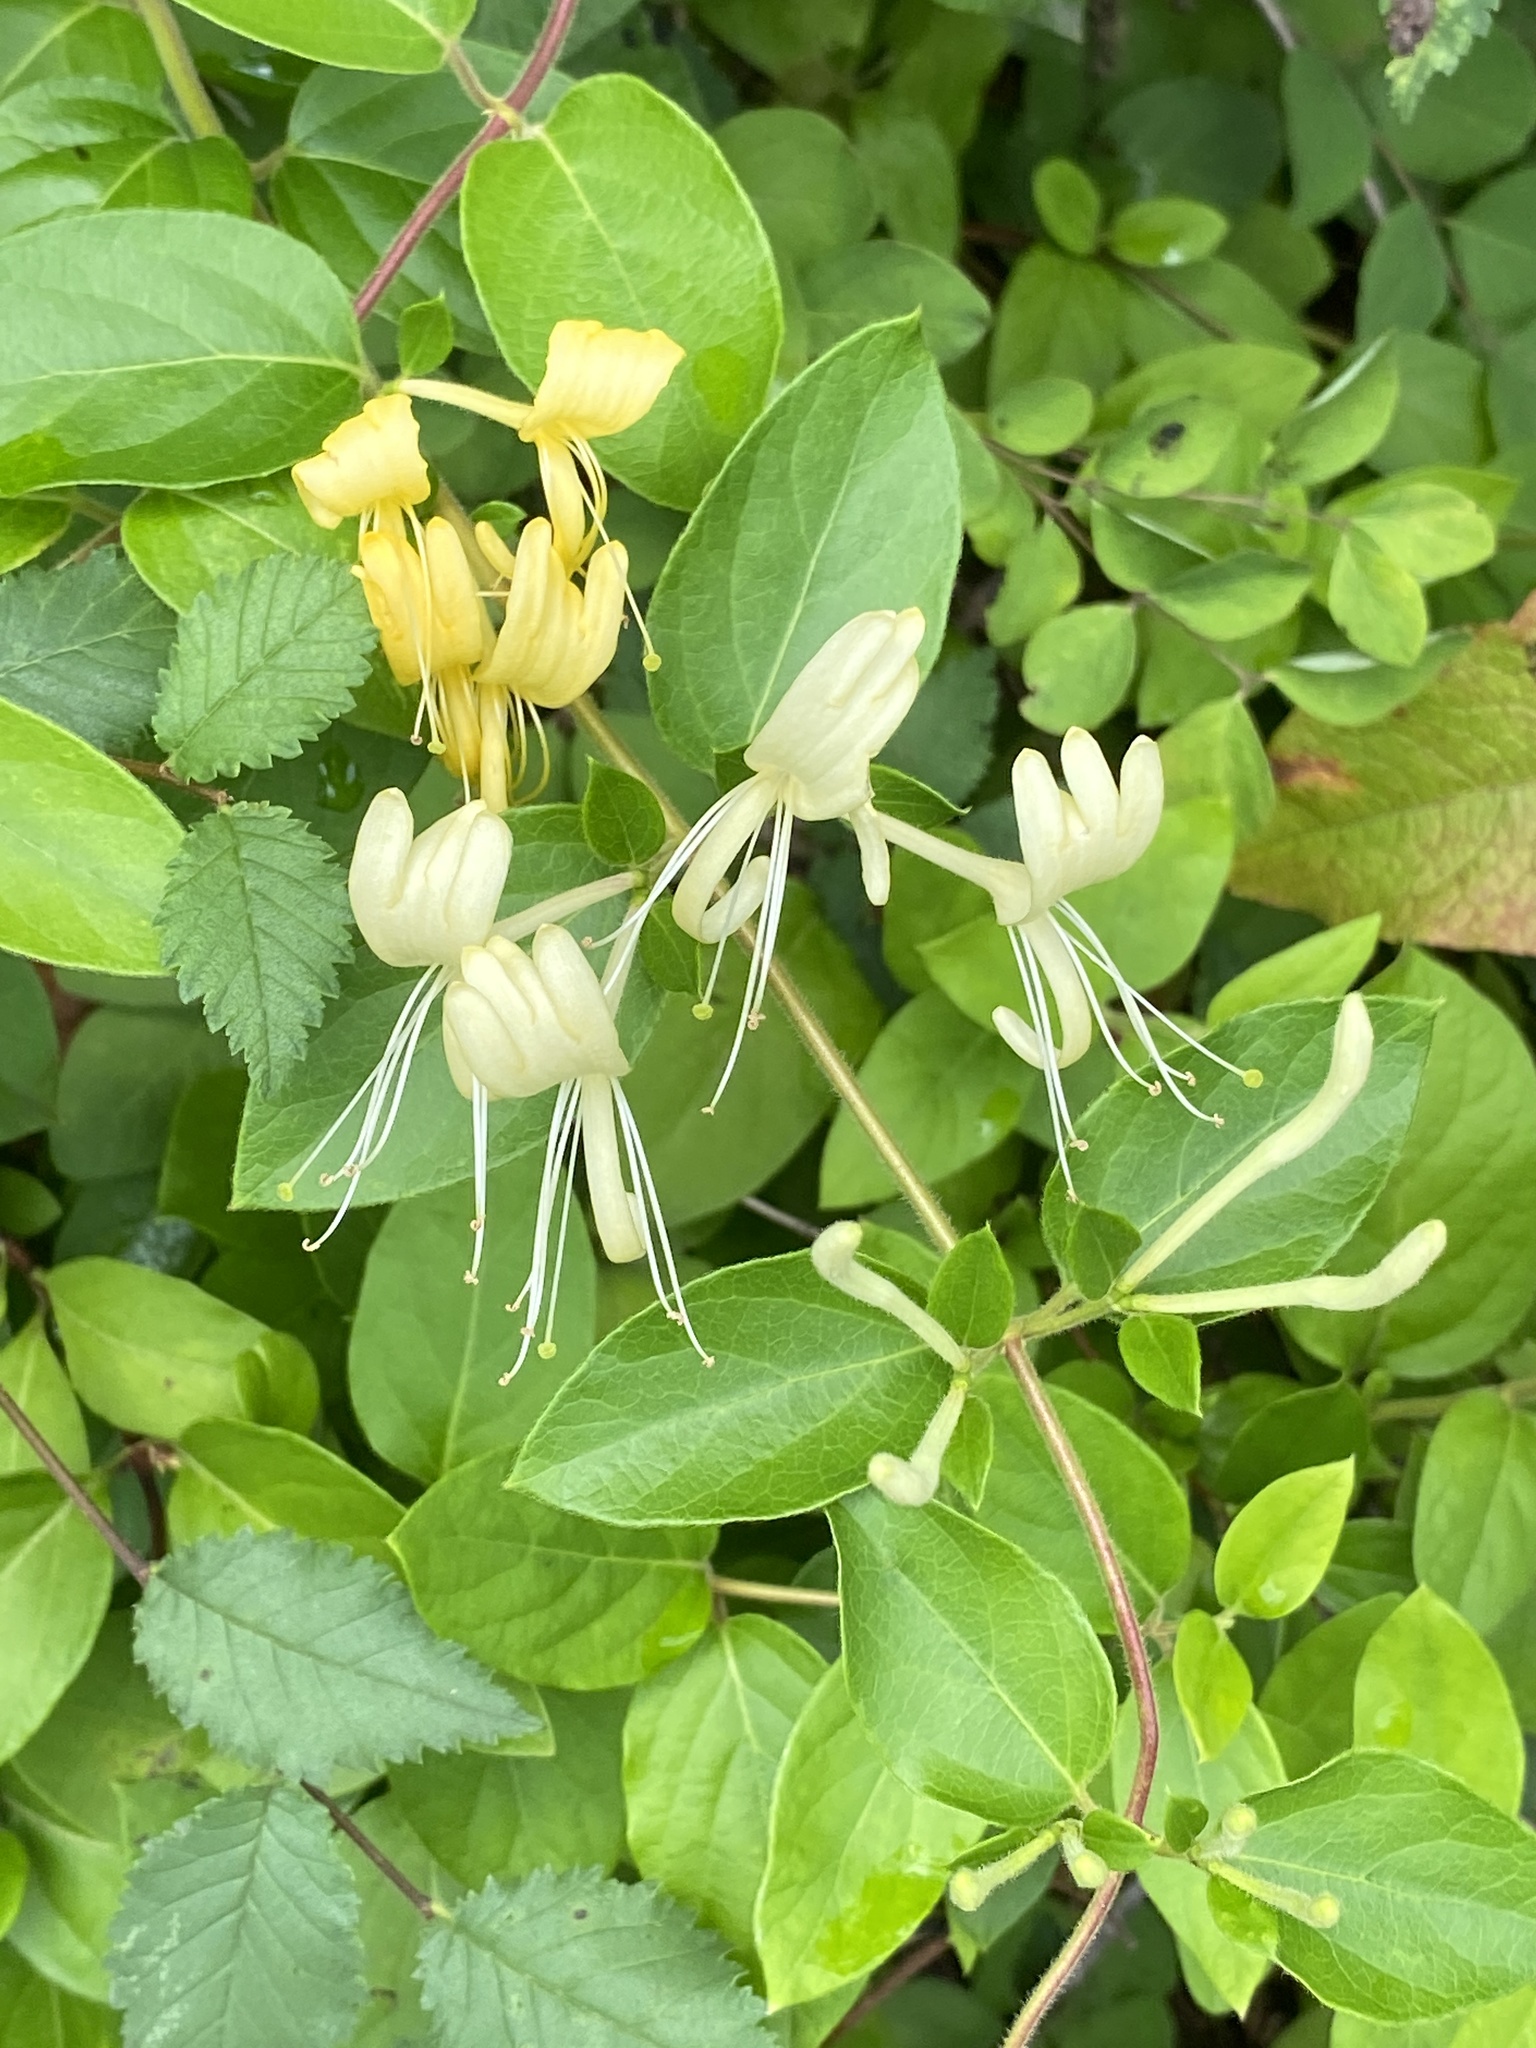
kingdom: Plantae
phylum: Tracheophyta
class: Magnoliopsida
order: Dipsacales
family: Caprifoliaceae
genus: Lonicera
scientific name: Lonicera japonica
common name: Japanese honeysuckle
